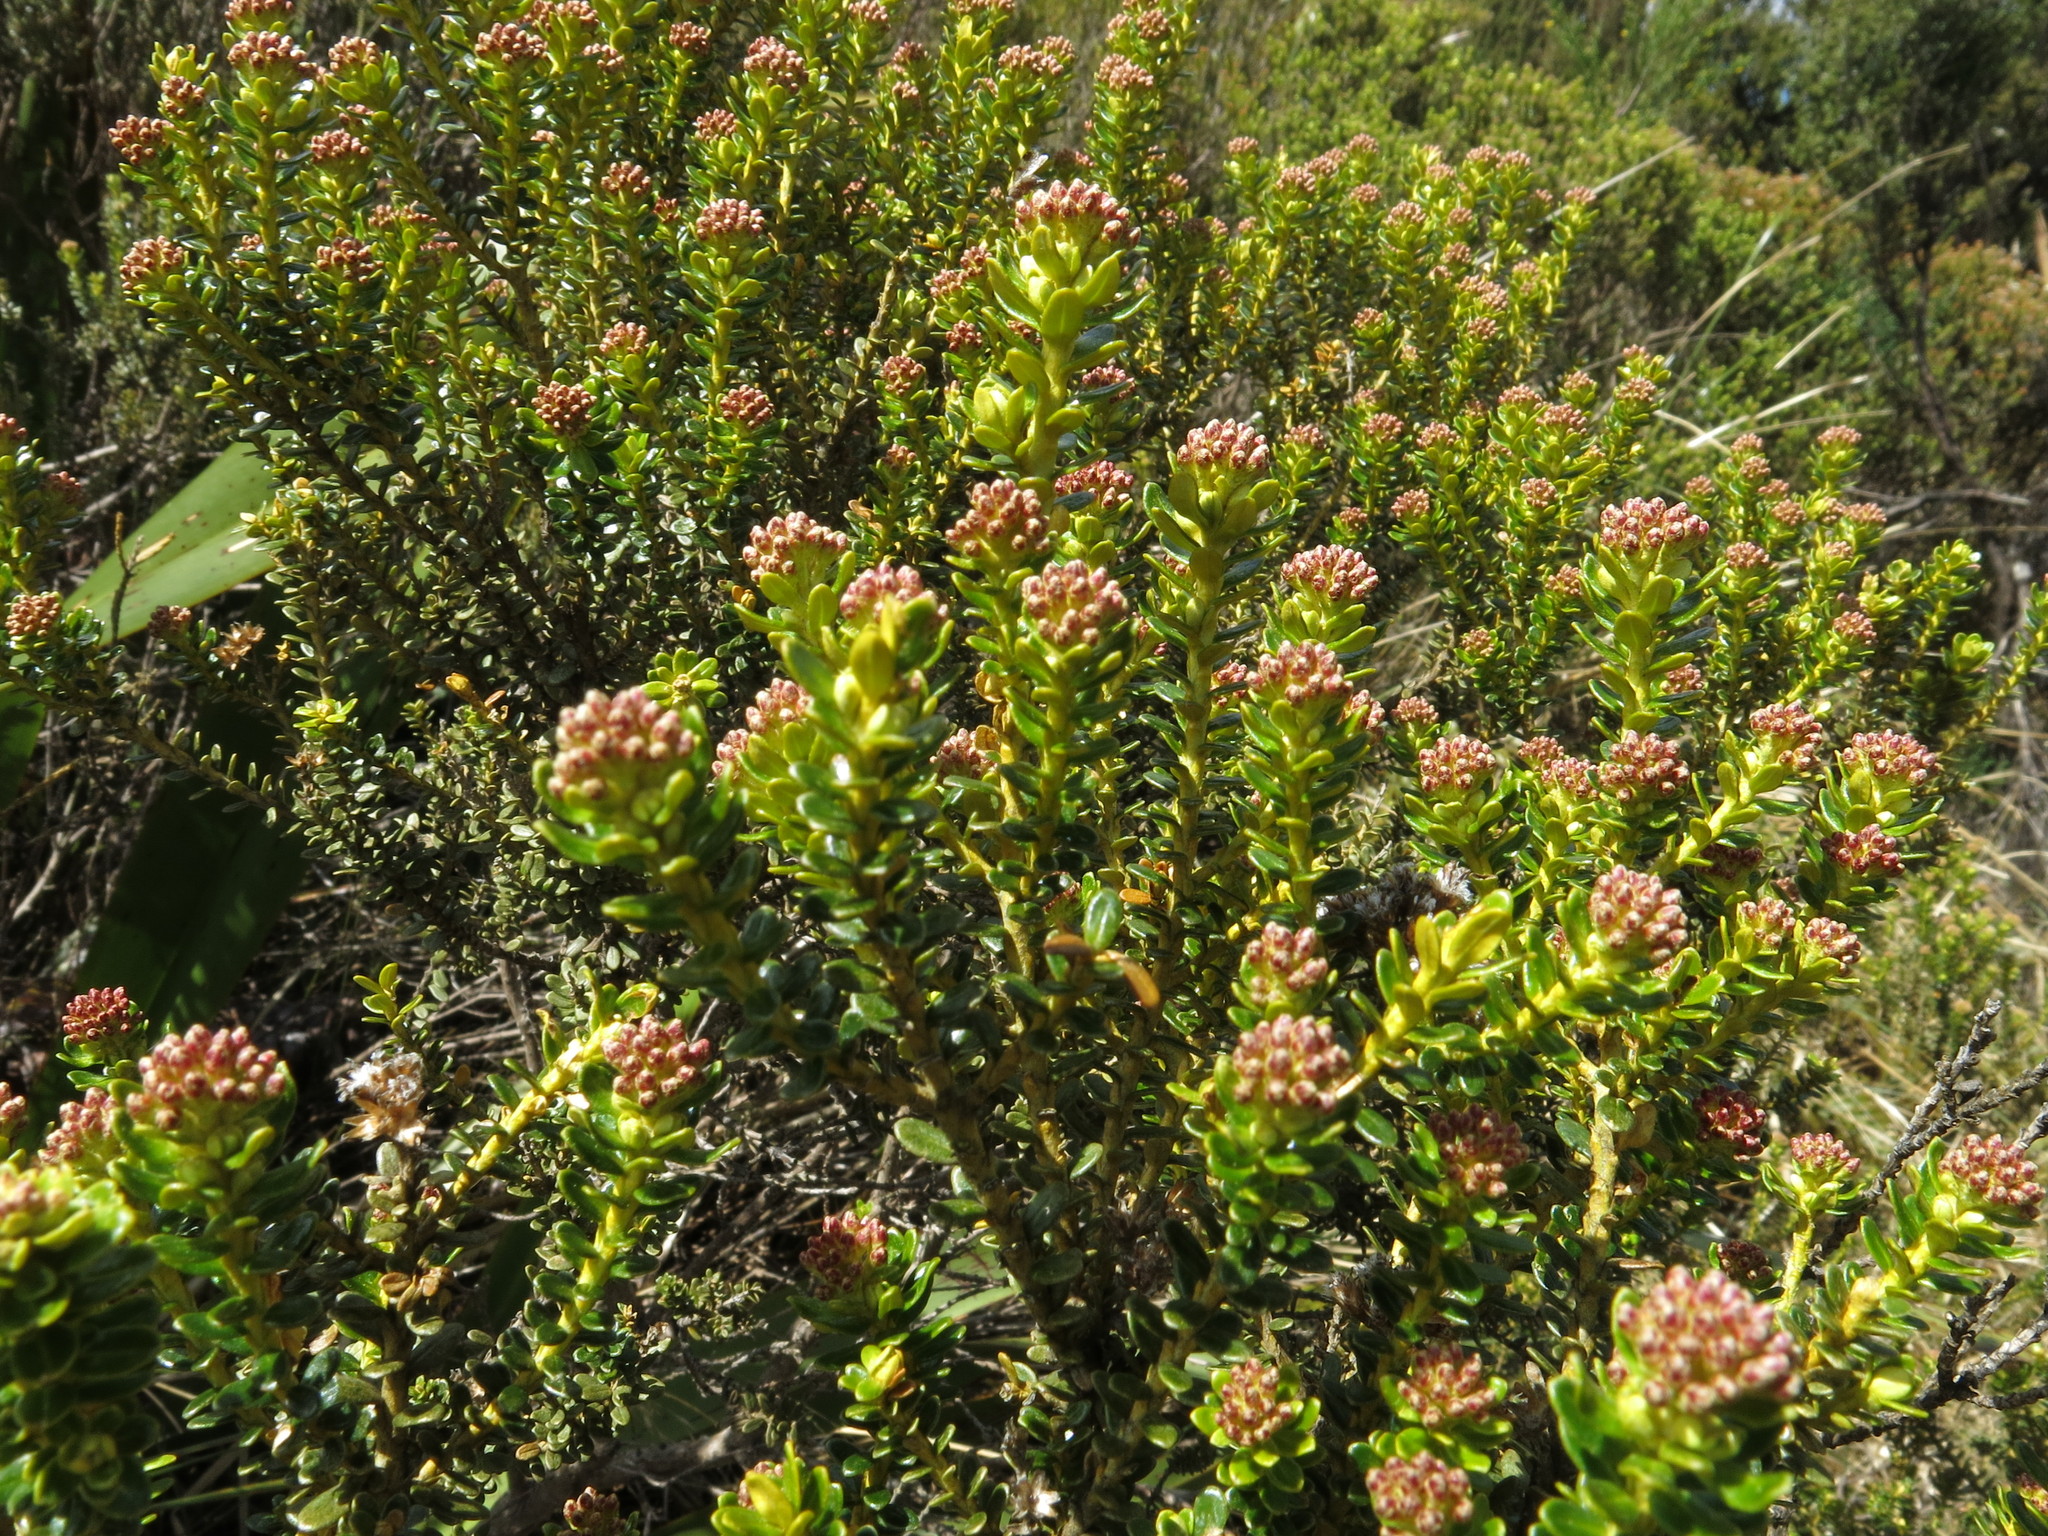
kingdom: Plantae
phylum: Tracheophyta
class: Magnoliopsida
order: Asterales
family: Asteraceae
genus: Ozothamnus
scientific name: Ozothamnus leptophyllus
